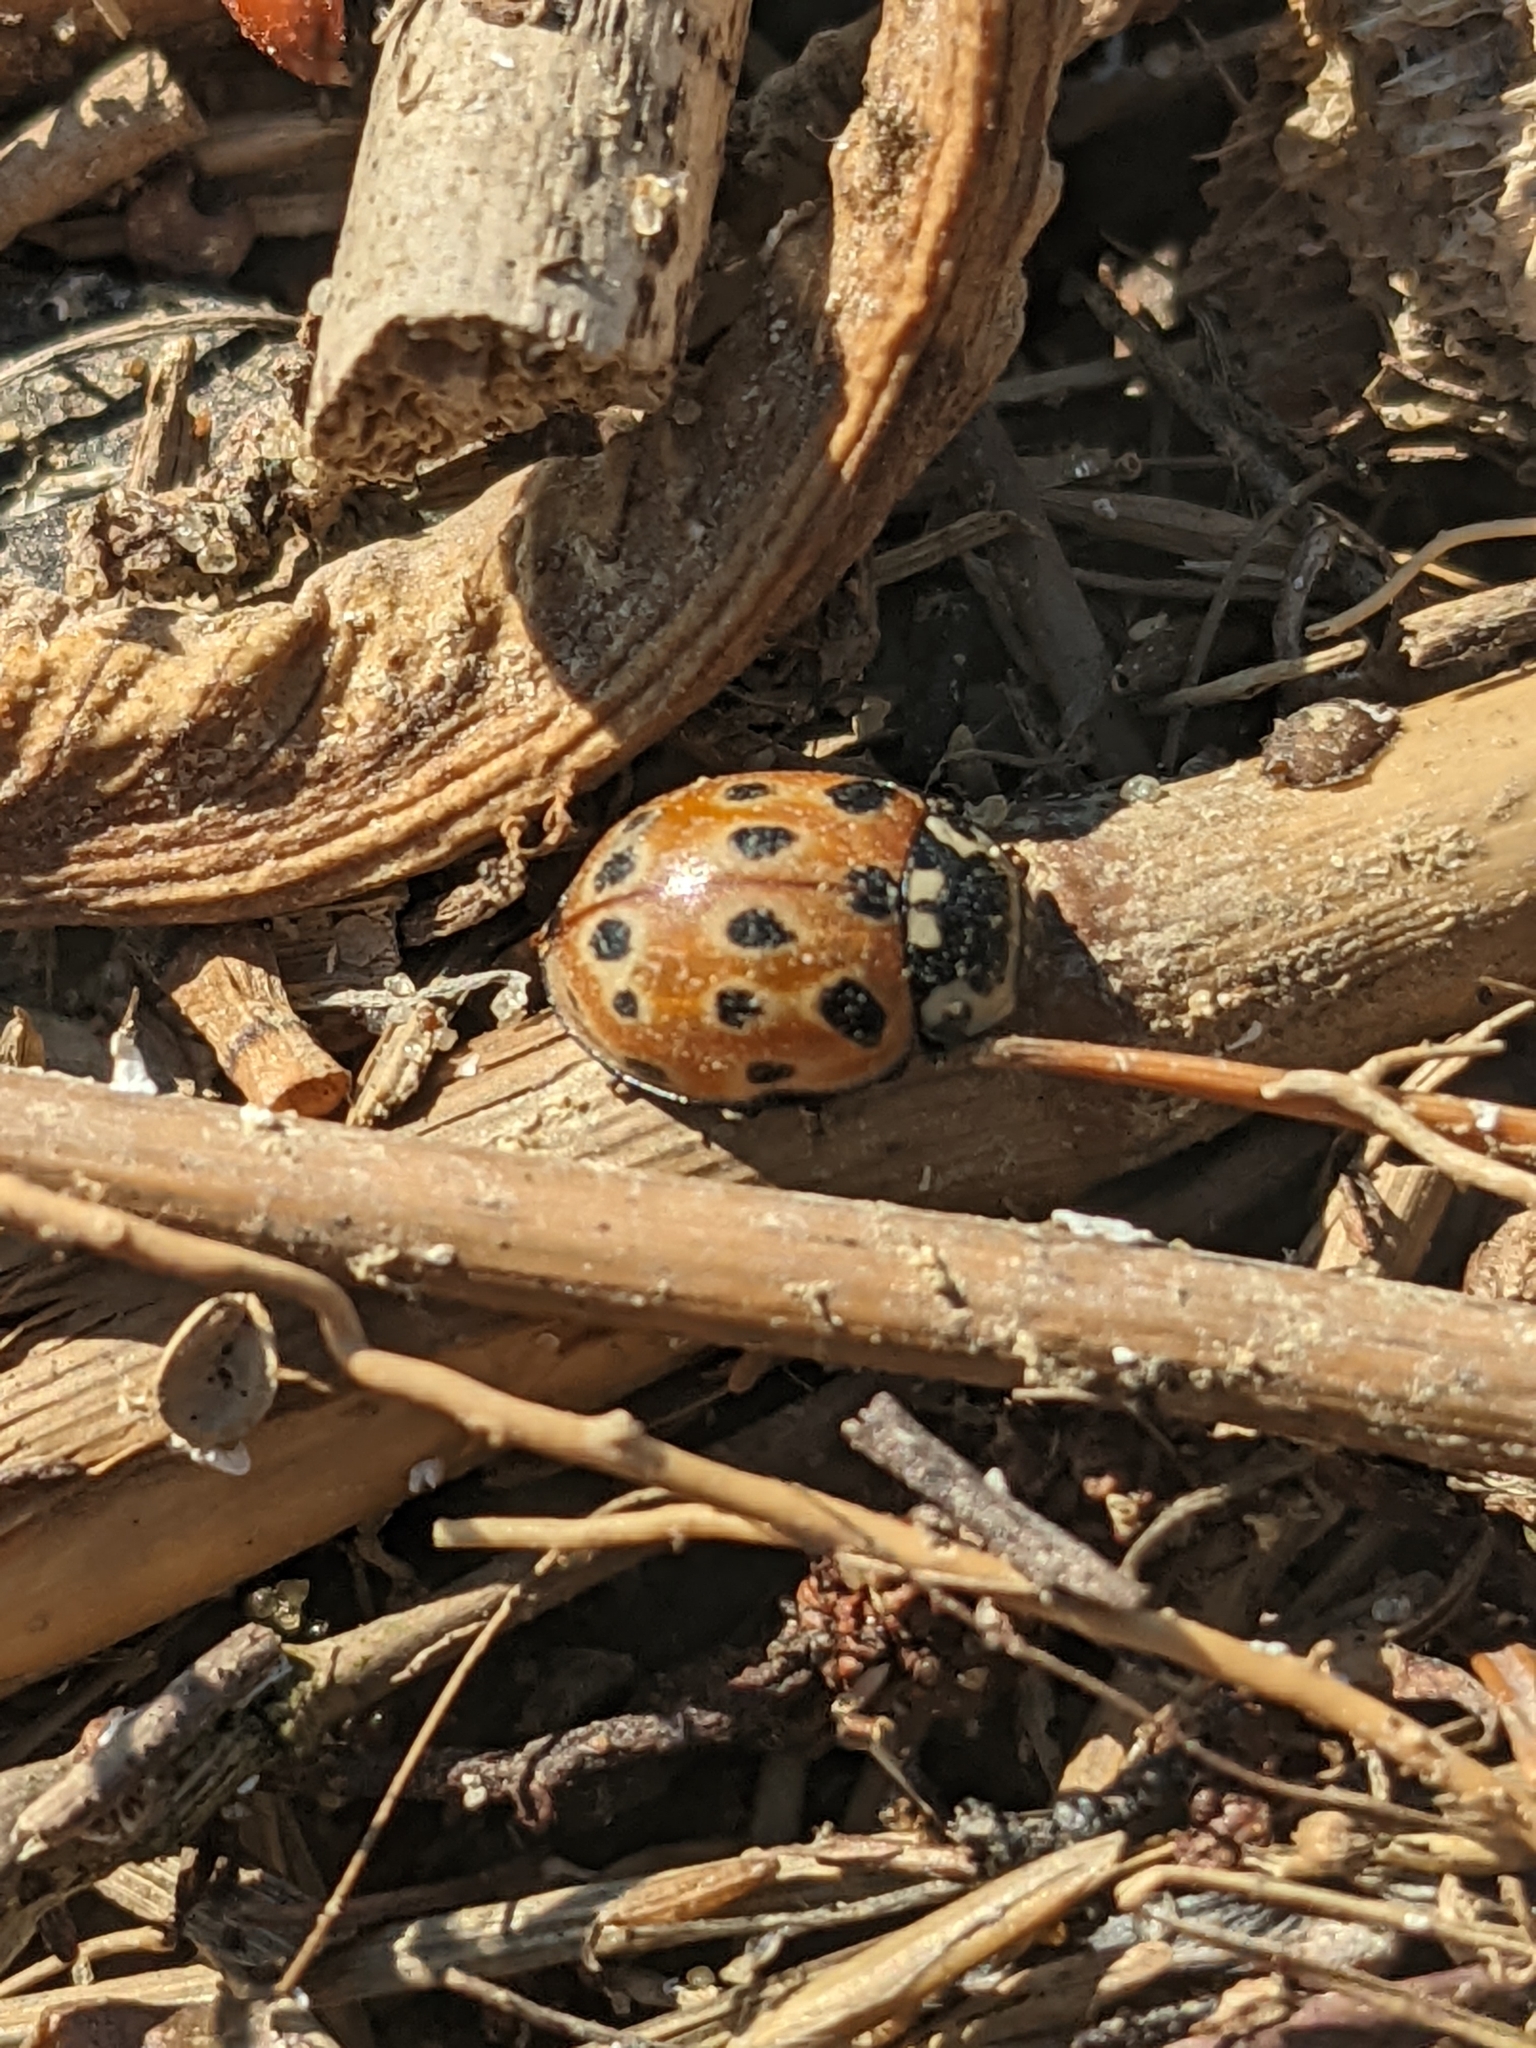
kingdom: Animalia
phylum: Arthropoda
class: Insecta
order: Coleoptera
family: Coccinellidae
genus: Anatis
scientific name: Anatis ocellata
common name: Eyed ladybird
